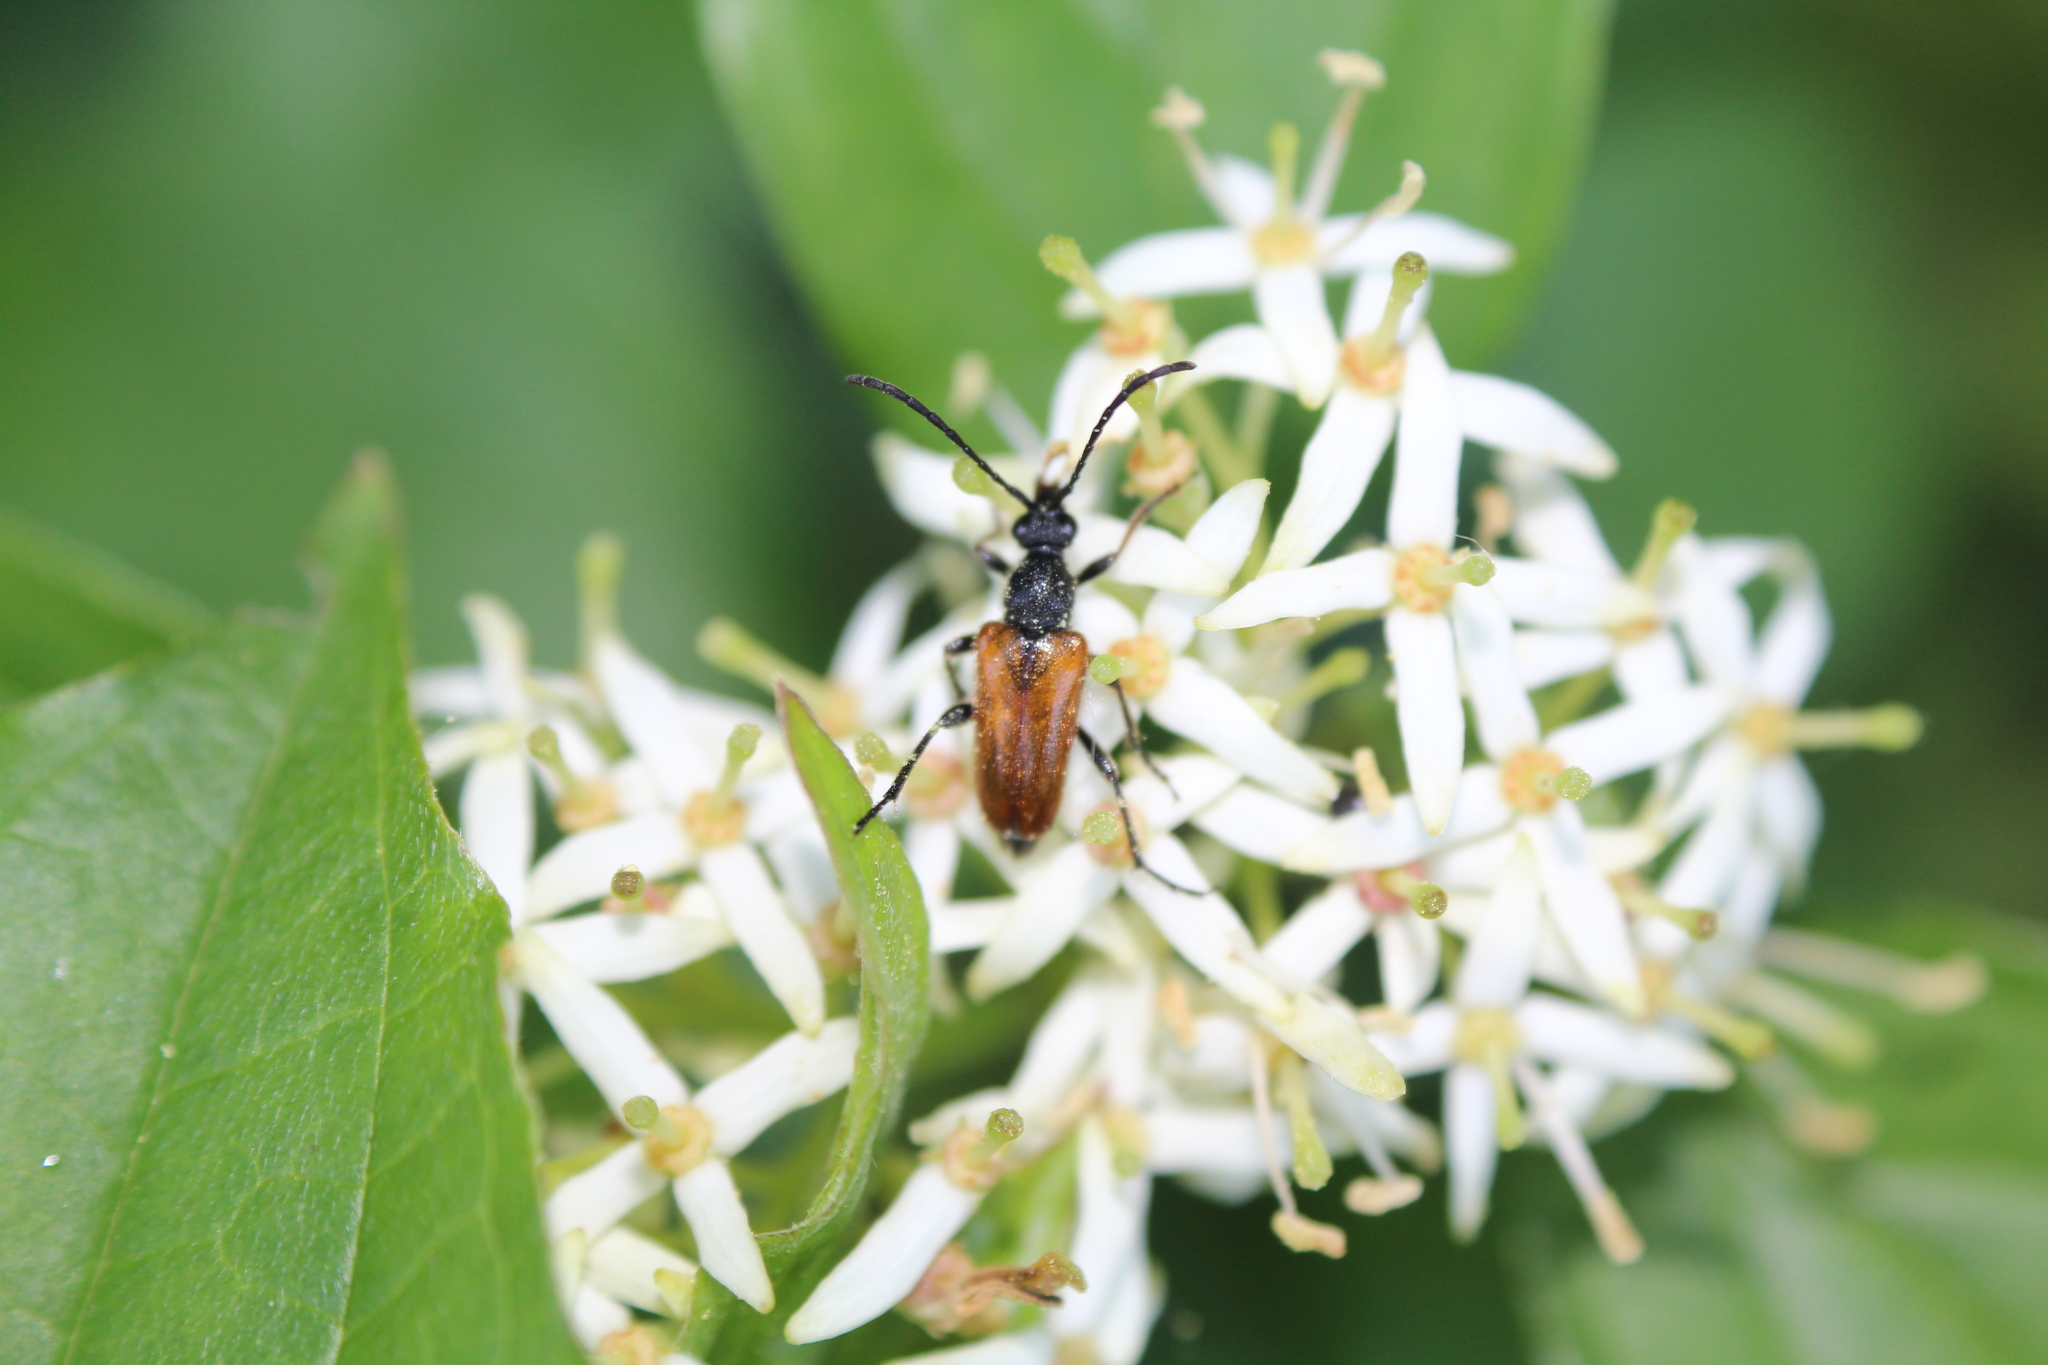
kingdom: Animalia
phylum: Arthropoda
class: Insecta
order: Coleoptera
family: Cerambycidae
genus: Pseudovadonia
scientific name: Pseudovadonia livida
